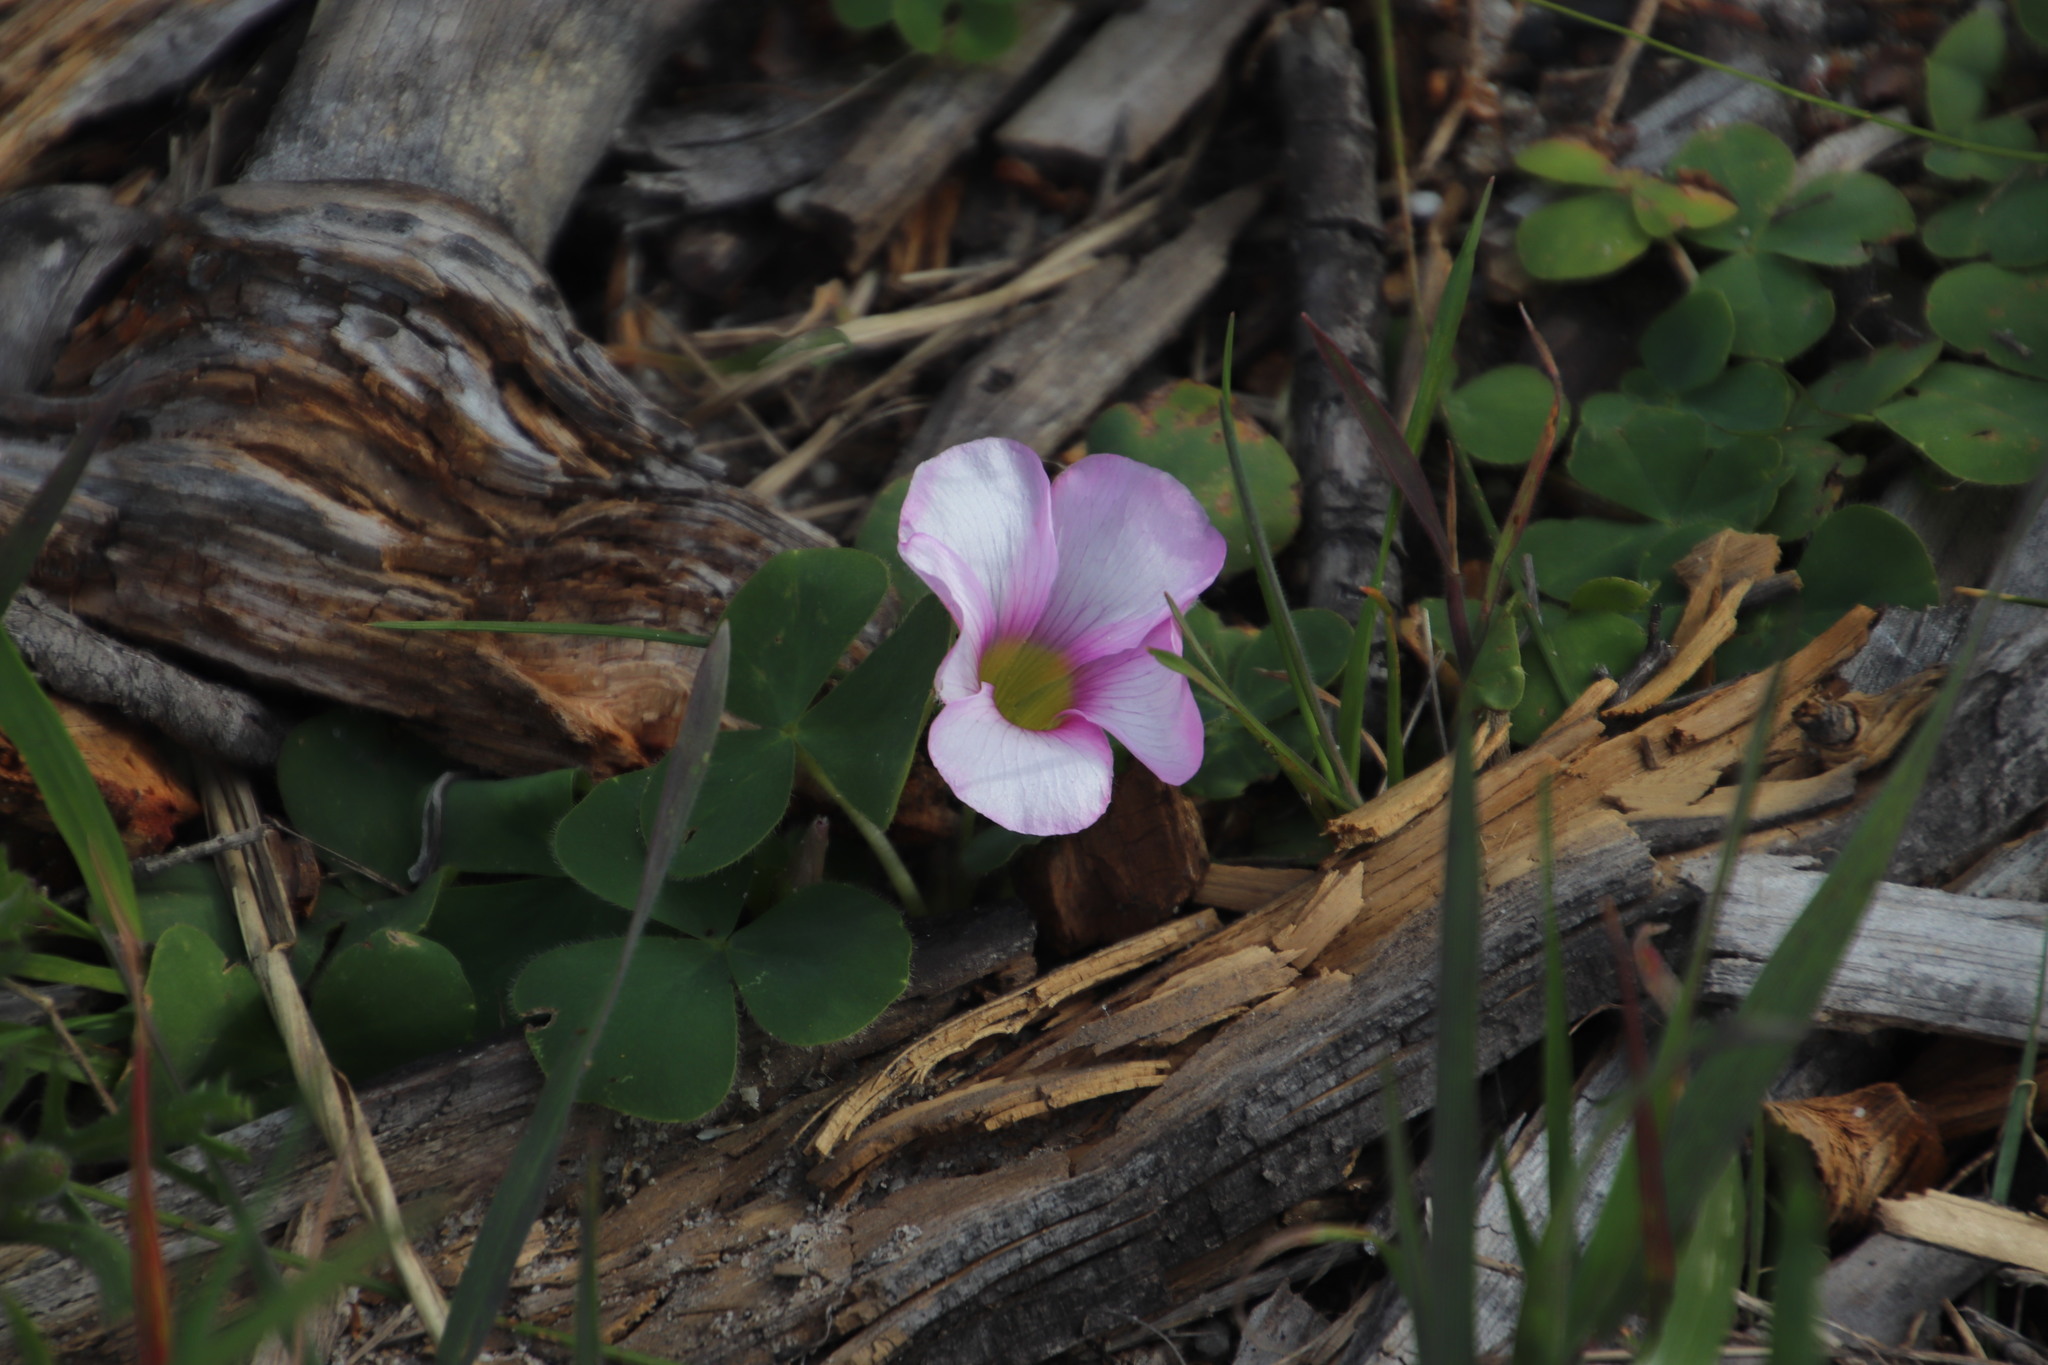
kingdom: Plantae
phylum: Tracheophyta
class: Magnoliopsida
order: Oxalidales
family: Oxalidaceae
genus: Oxalis
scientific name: Oxalis purpurea
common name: Purple woodsorrel
